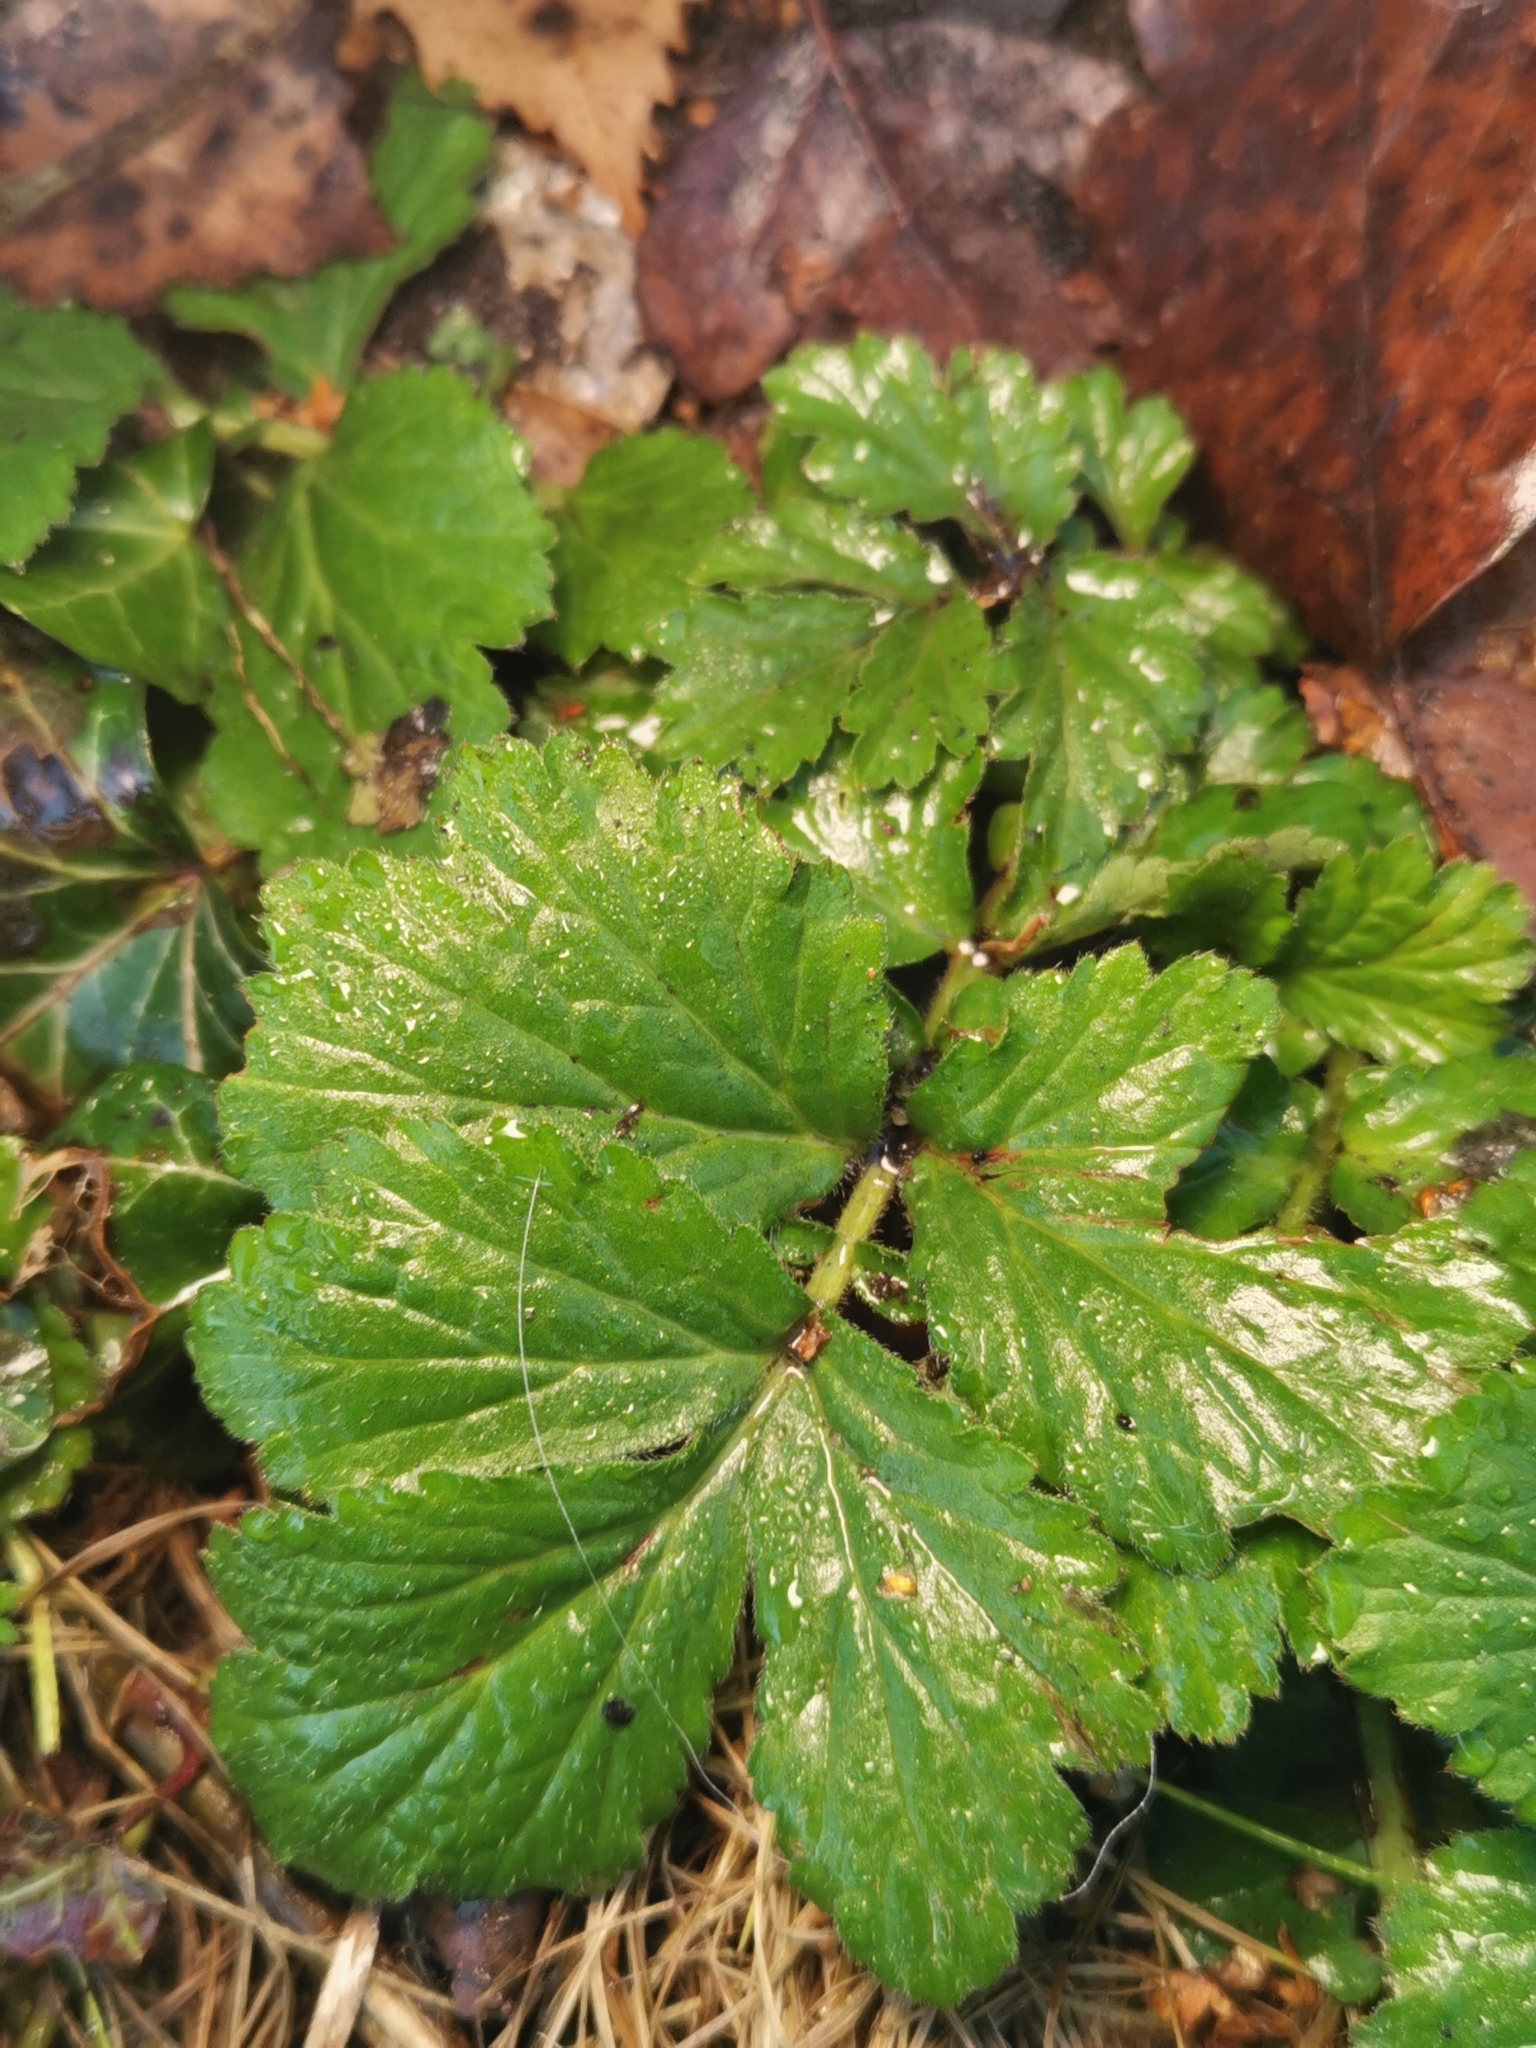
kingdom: Plantae
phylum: Tracheophyta
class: Magnoliopsida
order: Rosales
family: Rosaceae
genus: Geum
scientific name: Geum urbanum
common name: Wood avens
